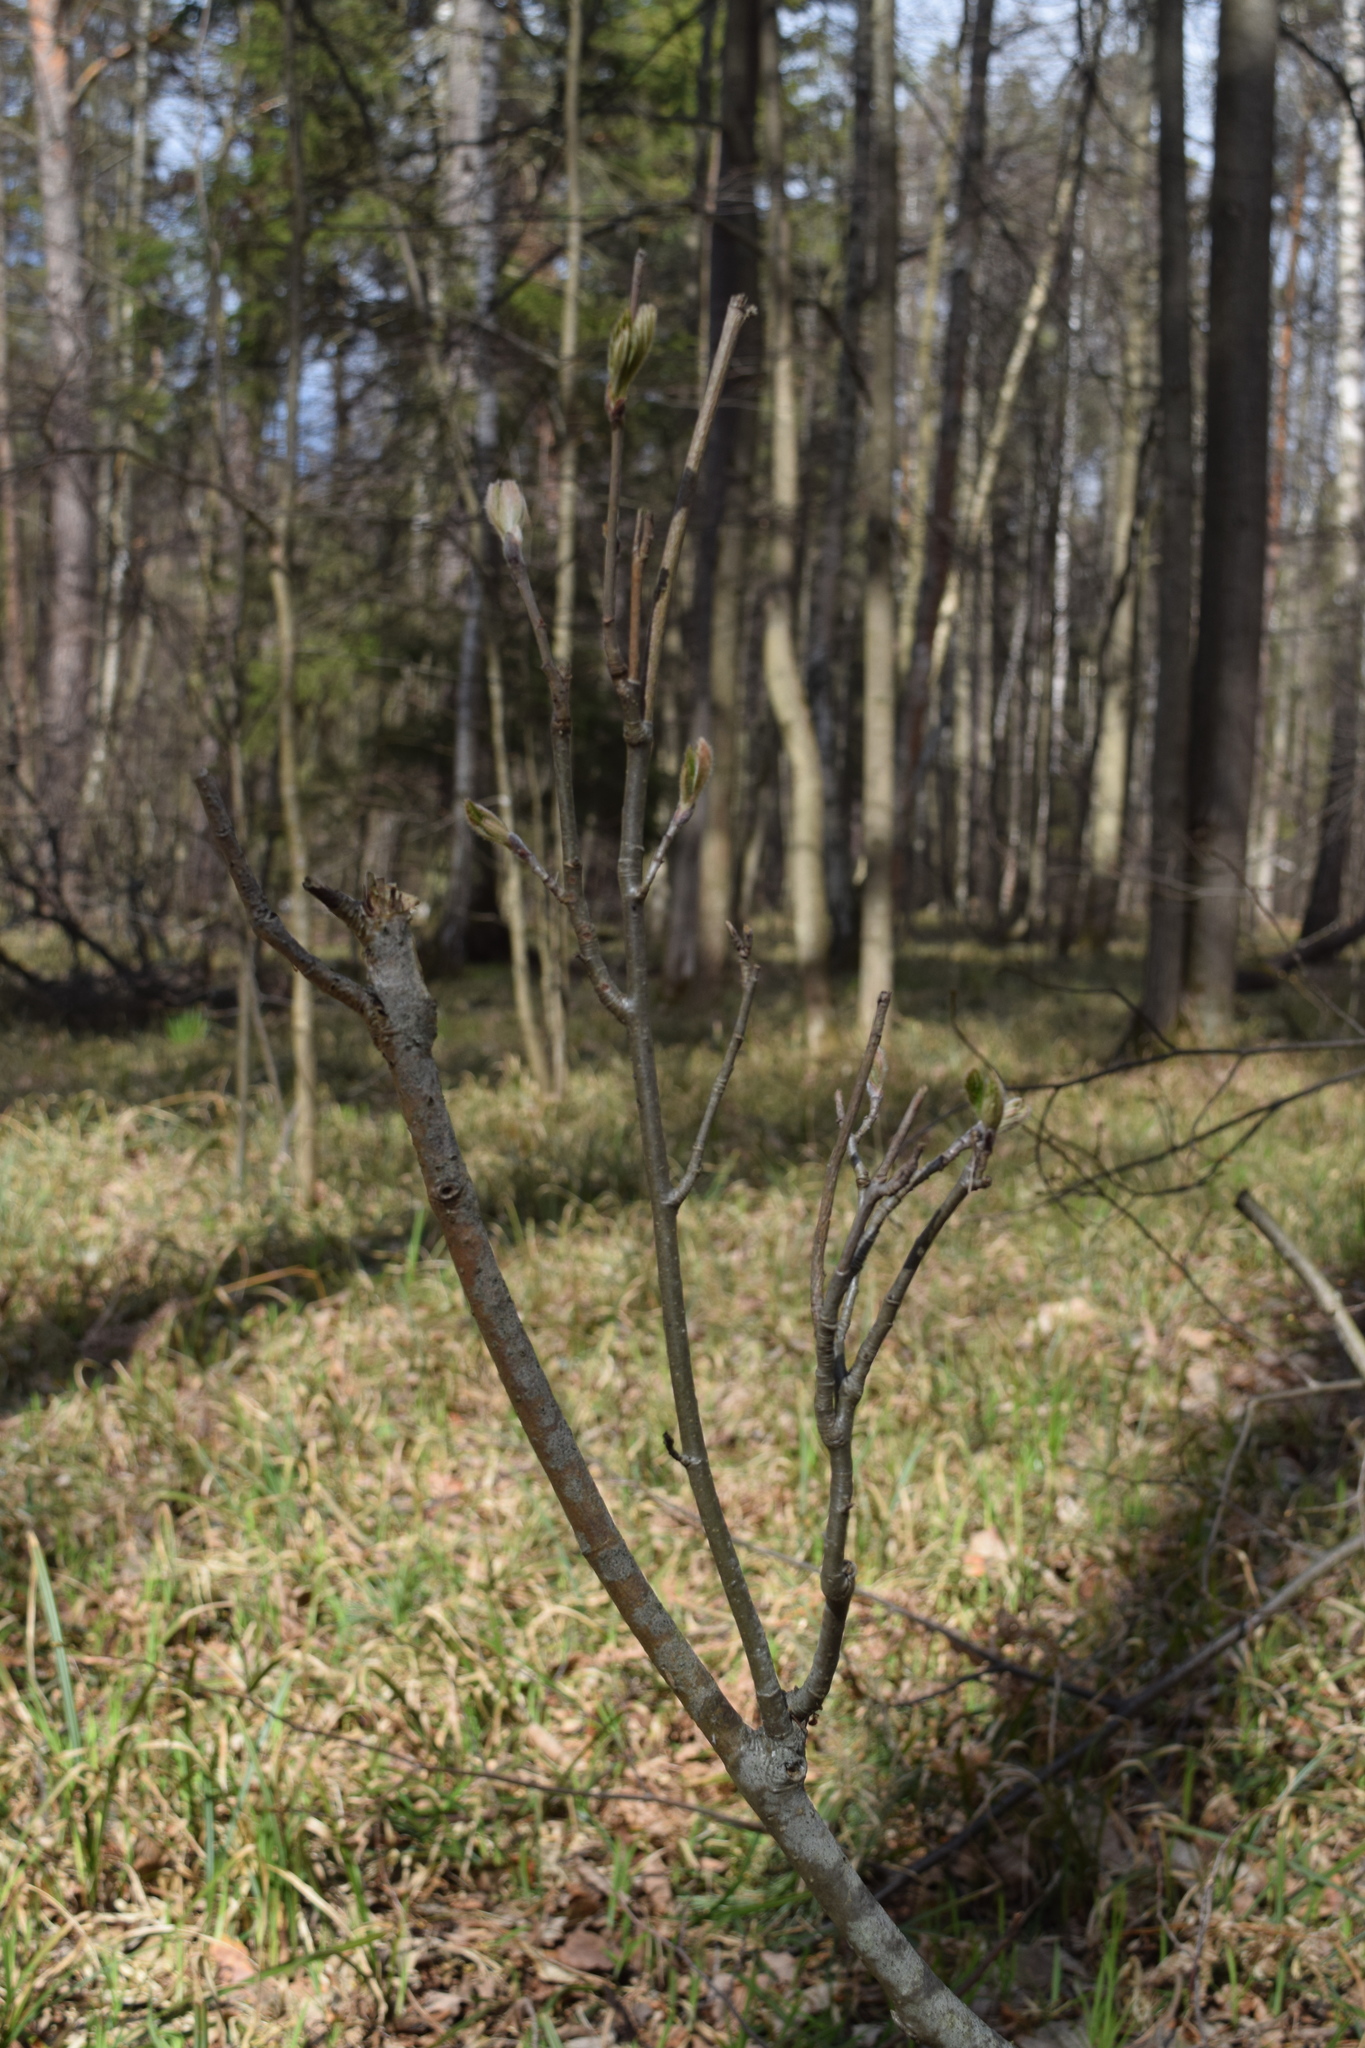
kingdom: Plantae
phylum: Tracheophyta
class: Magnoliopsida
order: Rosales
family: Rosaceae
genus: Sorbus
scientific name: Sorbus aucuparia
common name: Rowan
